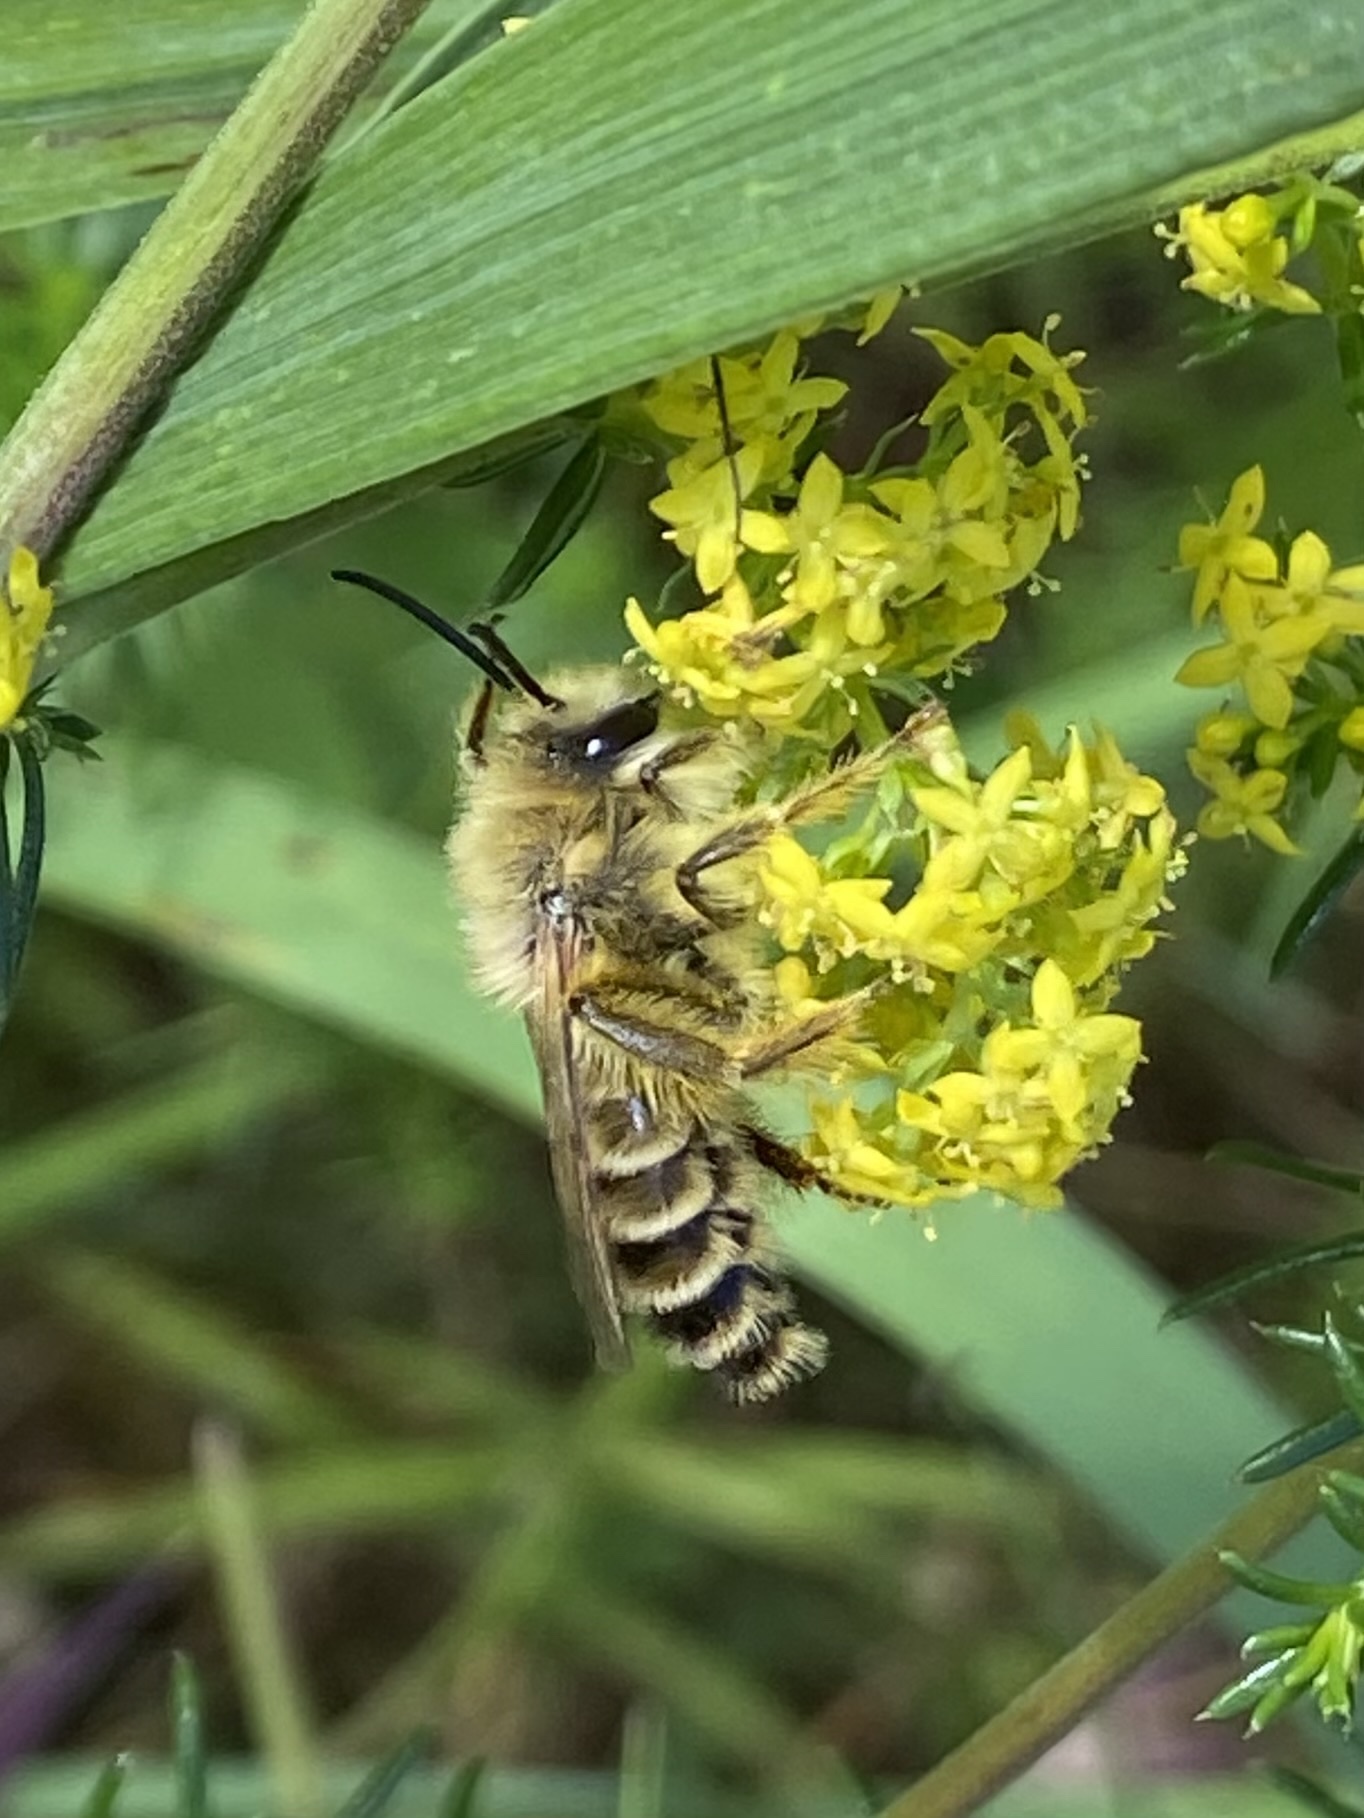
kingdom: Animalia
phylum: Arthropoda
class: Insecta
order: Hymenoptera
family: Melittidae
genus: Dasypoda
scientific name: Dasypoda hirtipes
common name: Pantaloon bee
